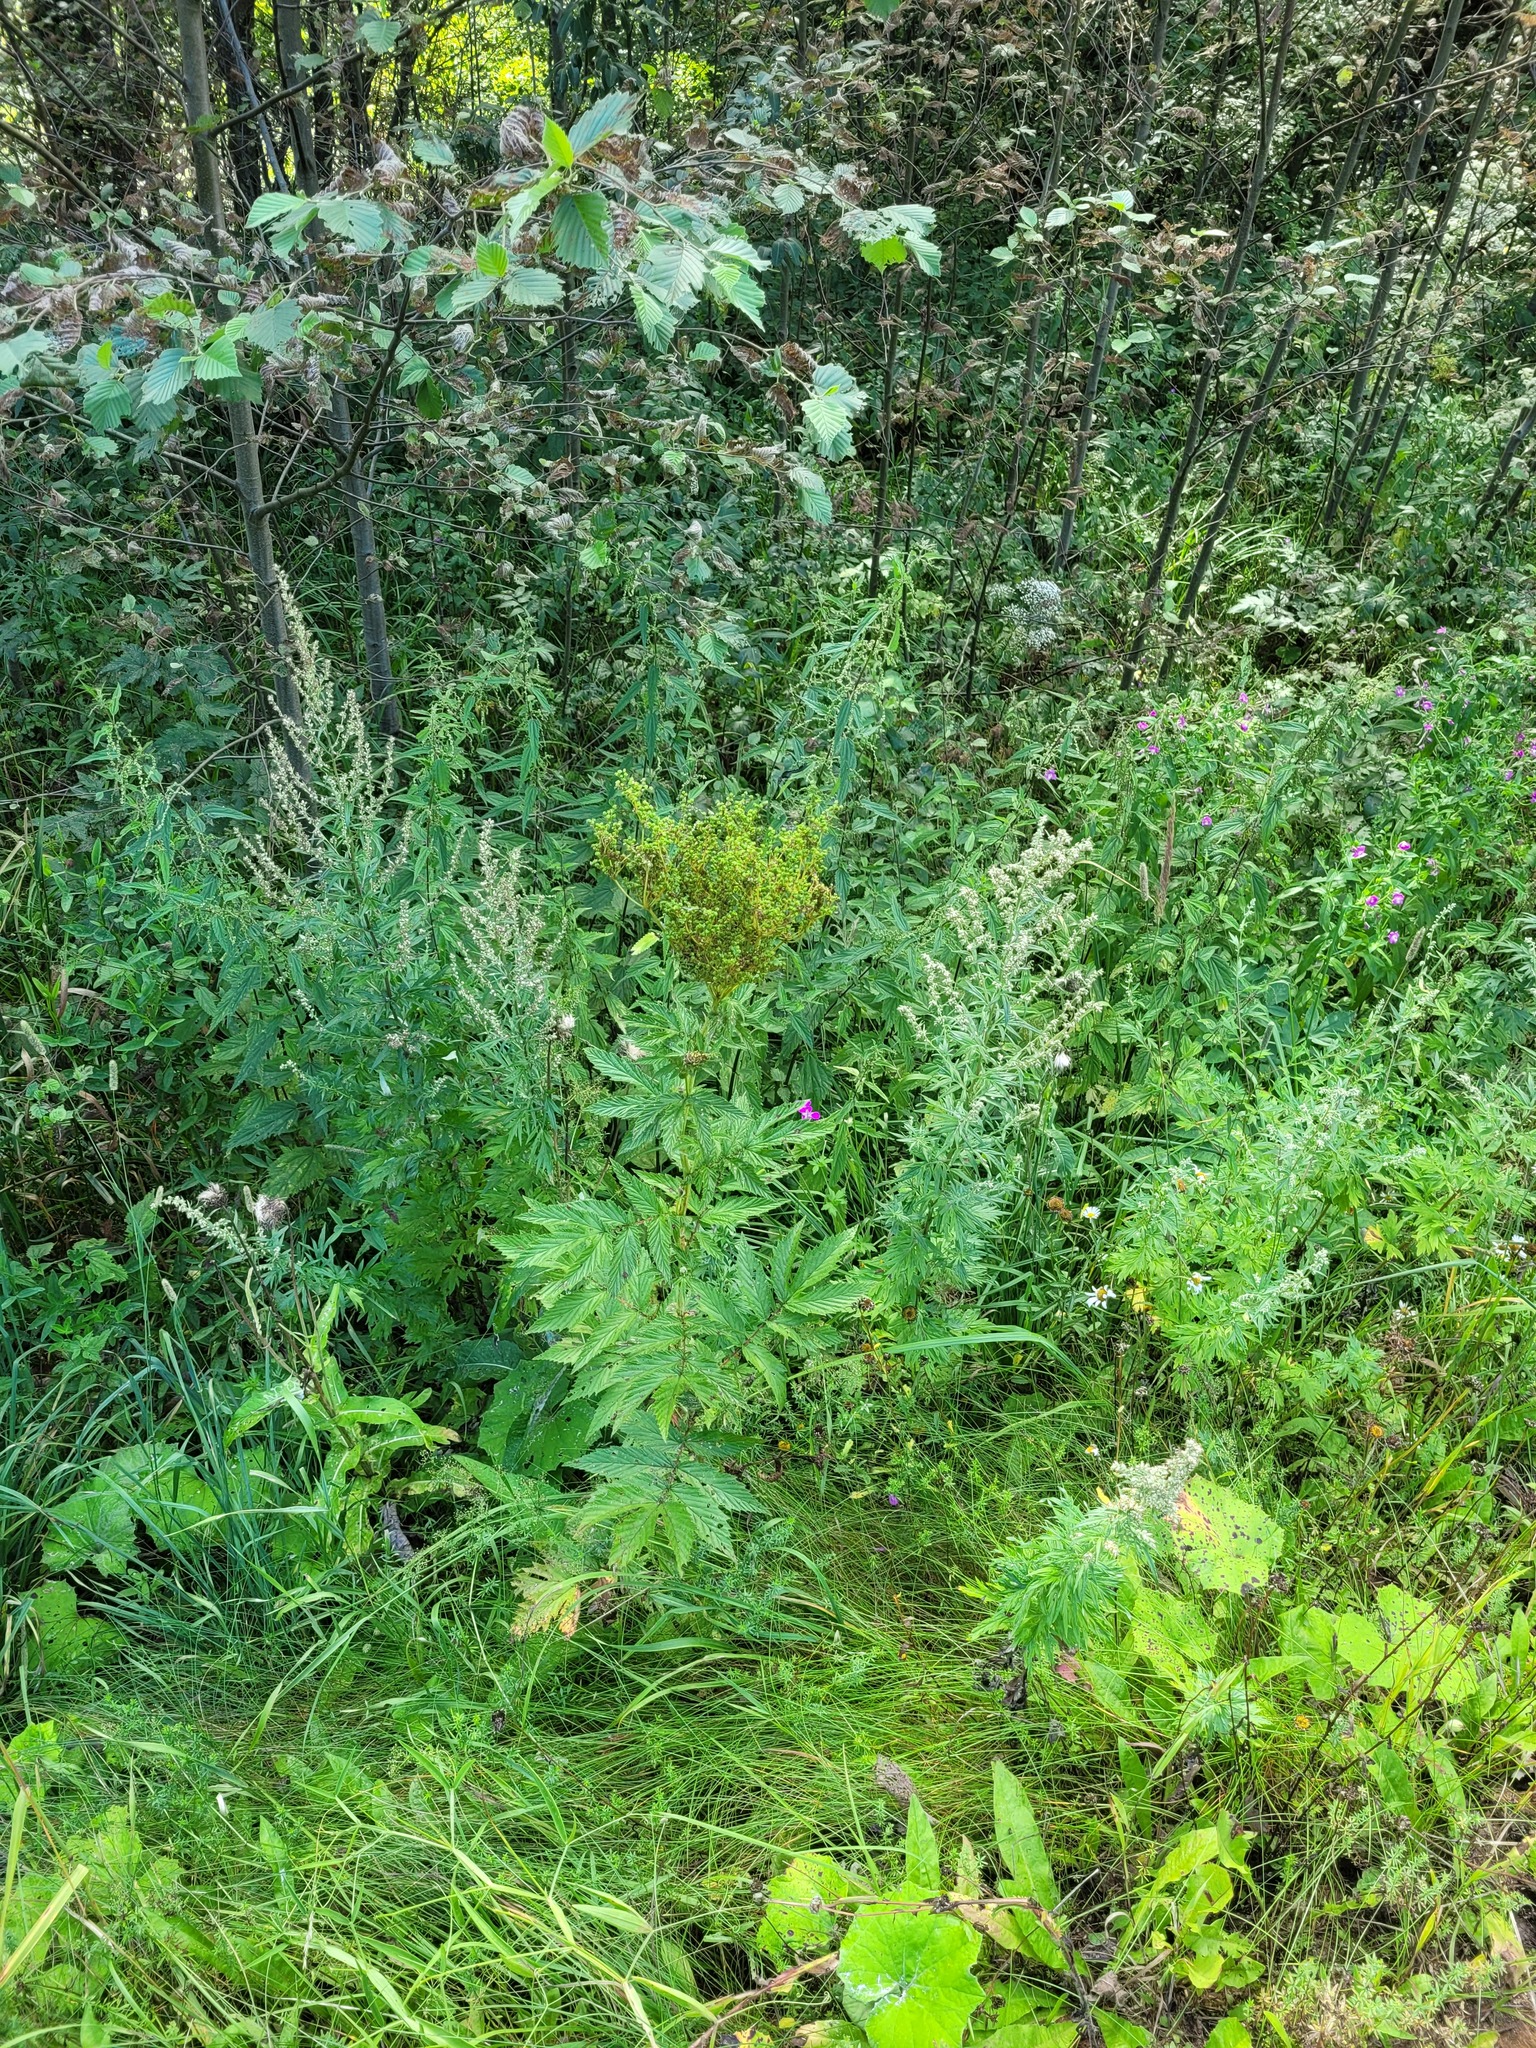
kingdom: Plantae
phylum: Tracheophyta
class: Magnoliopsida
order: Rosales
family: Rosaceae
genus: Filipendula
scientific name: Filipendula ulmaria
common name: Meadowsweet
